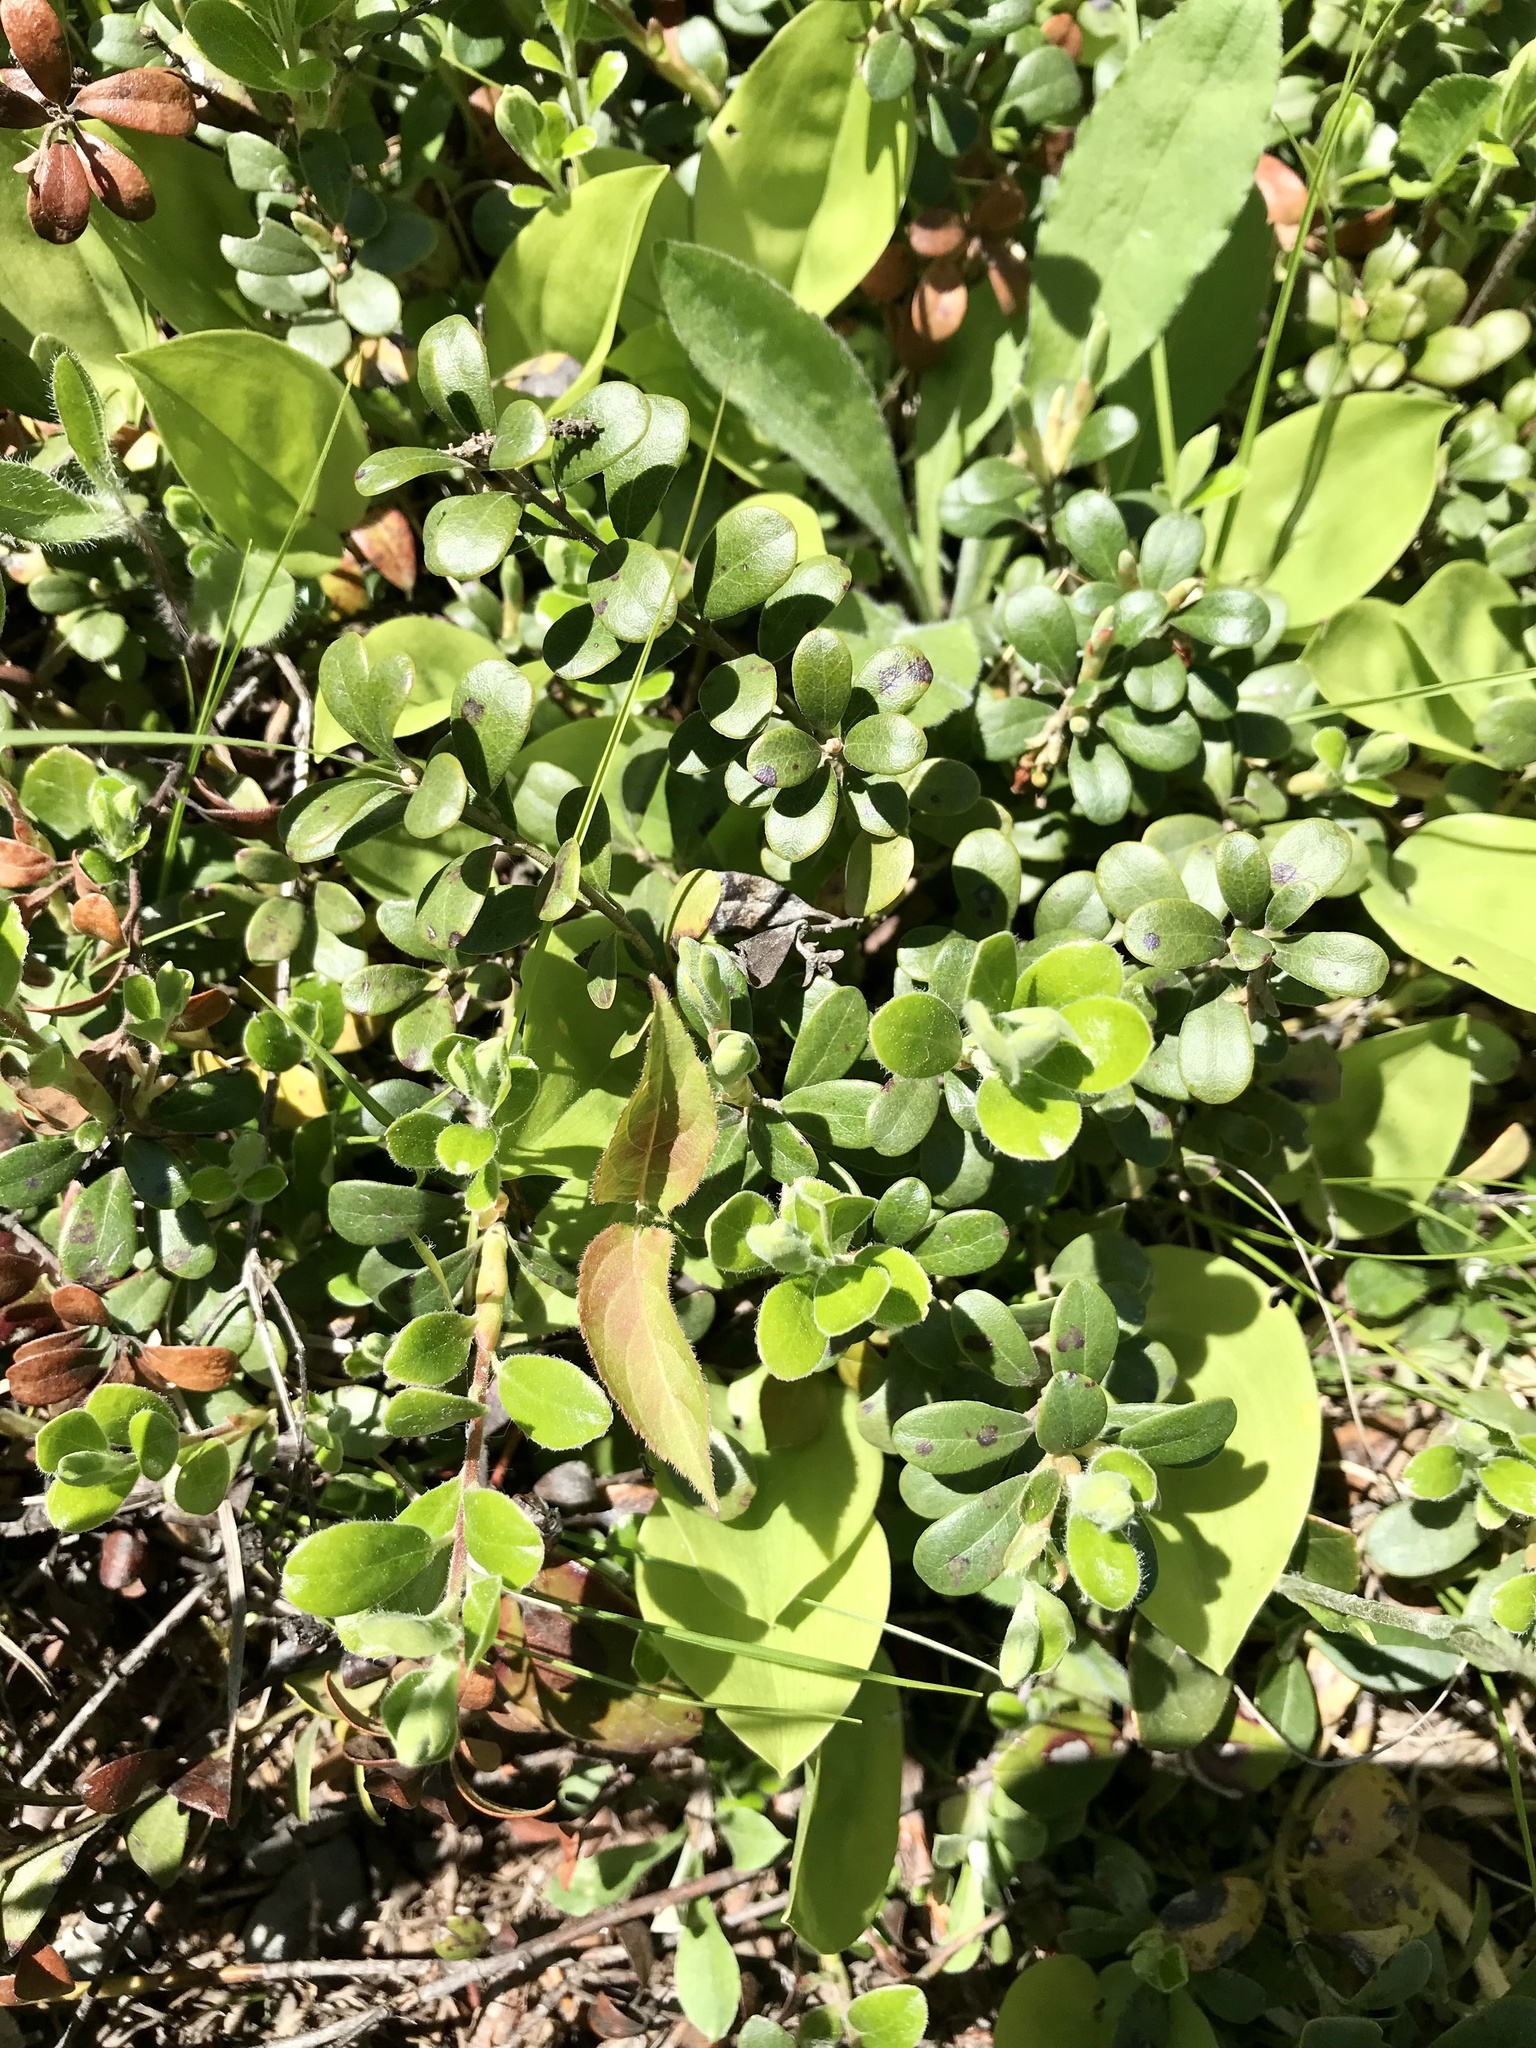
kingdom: Plantae
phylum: Tracheophyta
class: Magnoliopsida
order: Ericales
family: Ericaceae
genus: Arctostaphylos
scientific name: Arctostaphylos uva-ursi
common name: Bearberry
